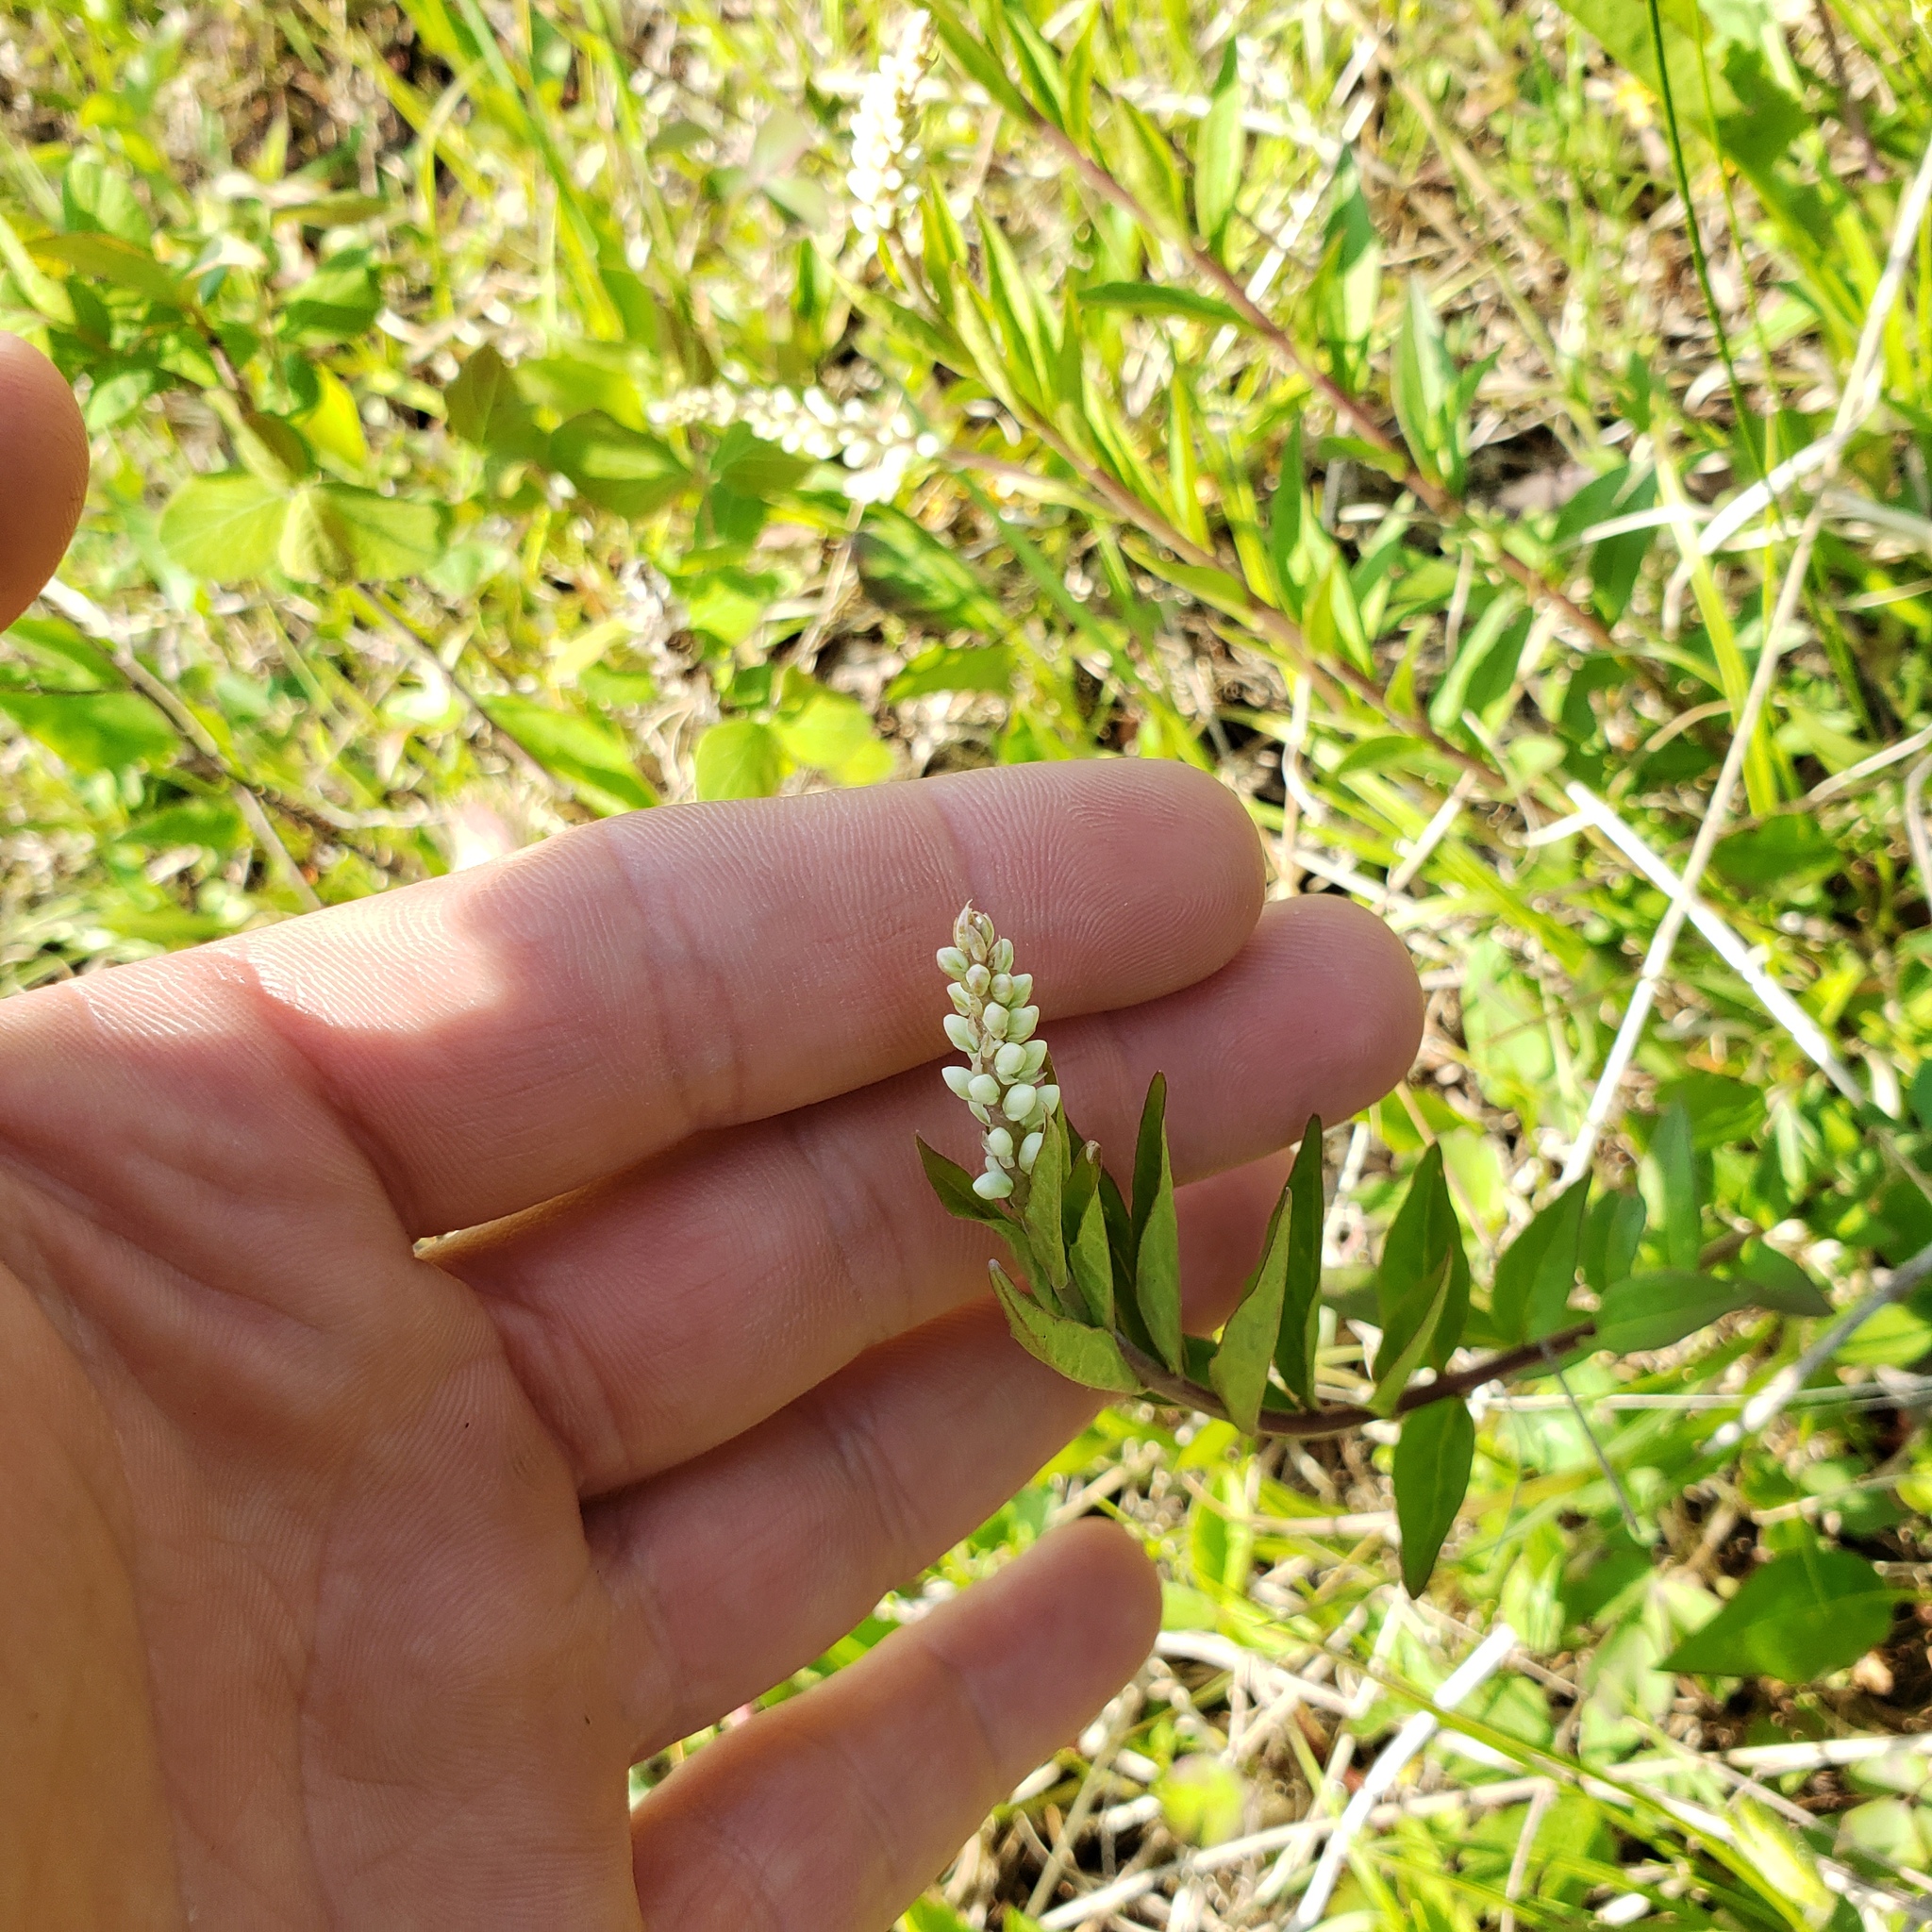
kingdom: Plantae
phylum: Tracheophyta
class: Magnoliopsida
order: Fabales
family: Polygalaceae
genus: Polygala
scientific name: Polygala senega
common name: Seneca snakeroot
